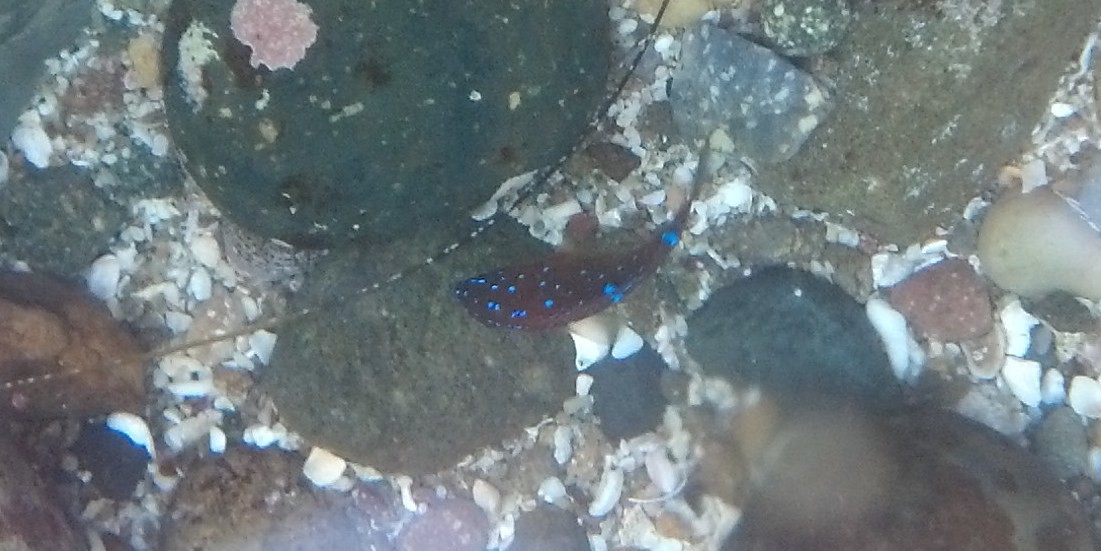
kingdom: Animalia
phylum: Chordata
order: Perciformes
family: Pomacentridae
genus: Hypsypops
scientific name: Hypsypops rubicundus
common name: Garibaldi
